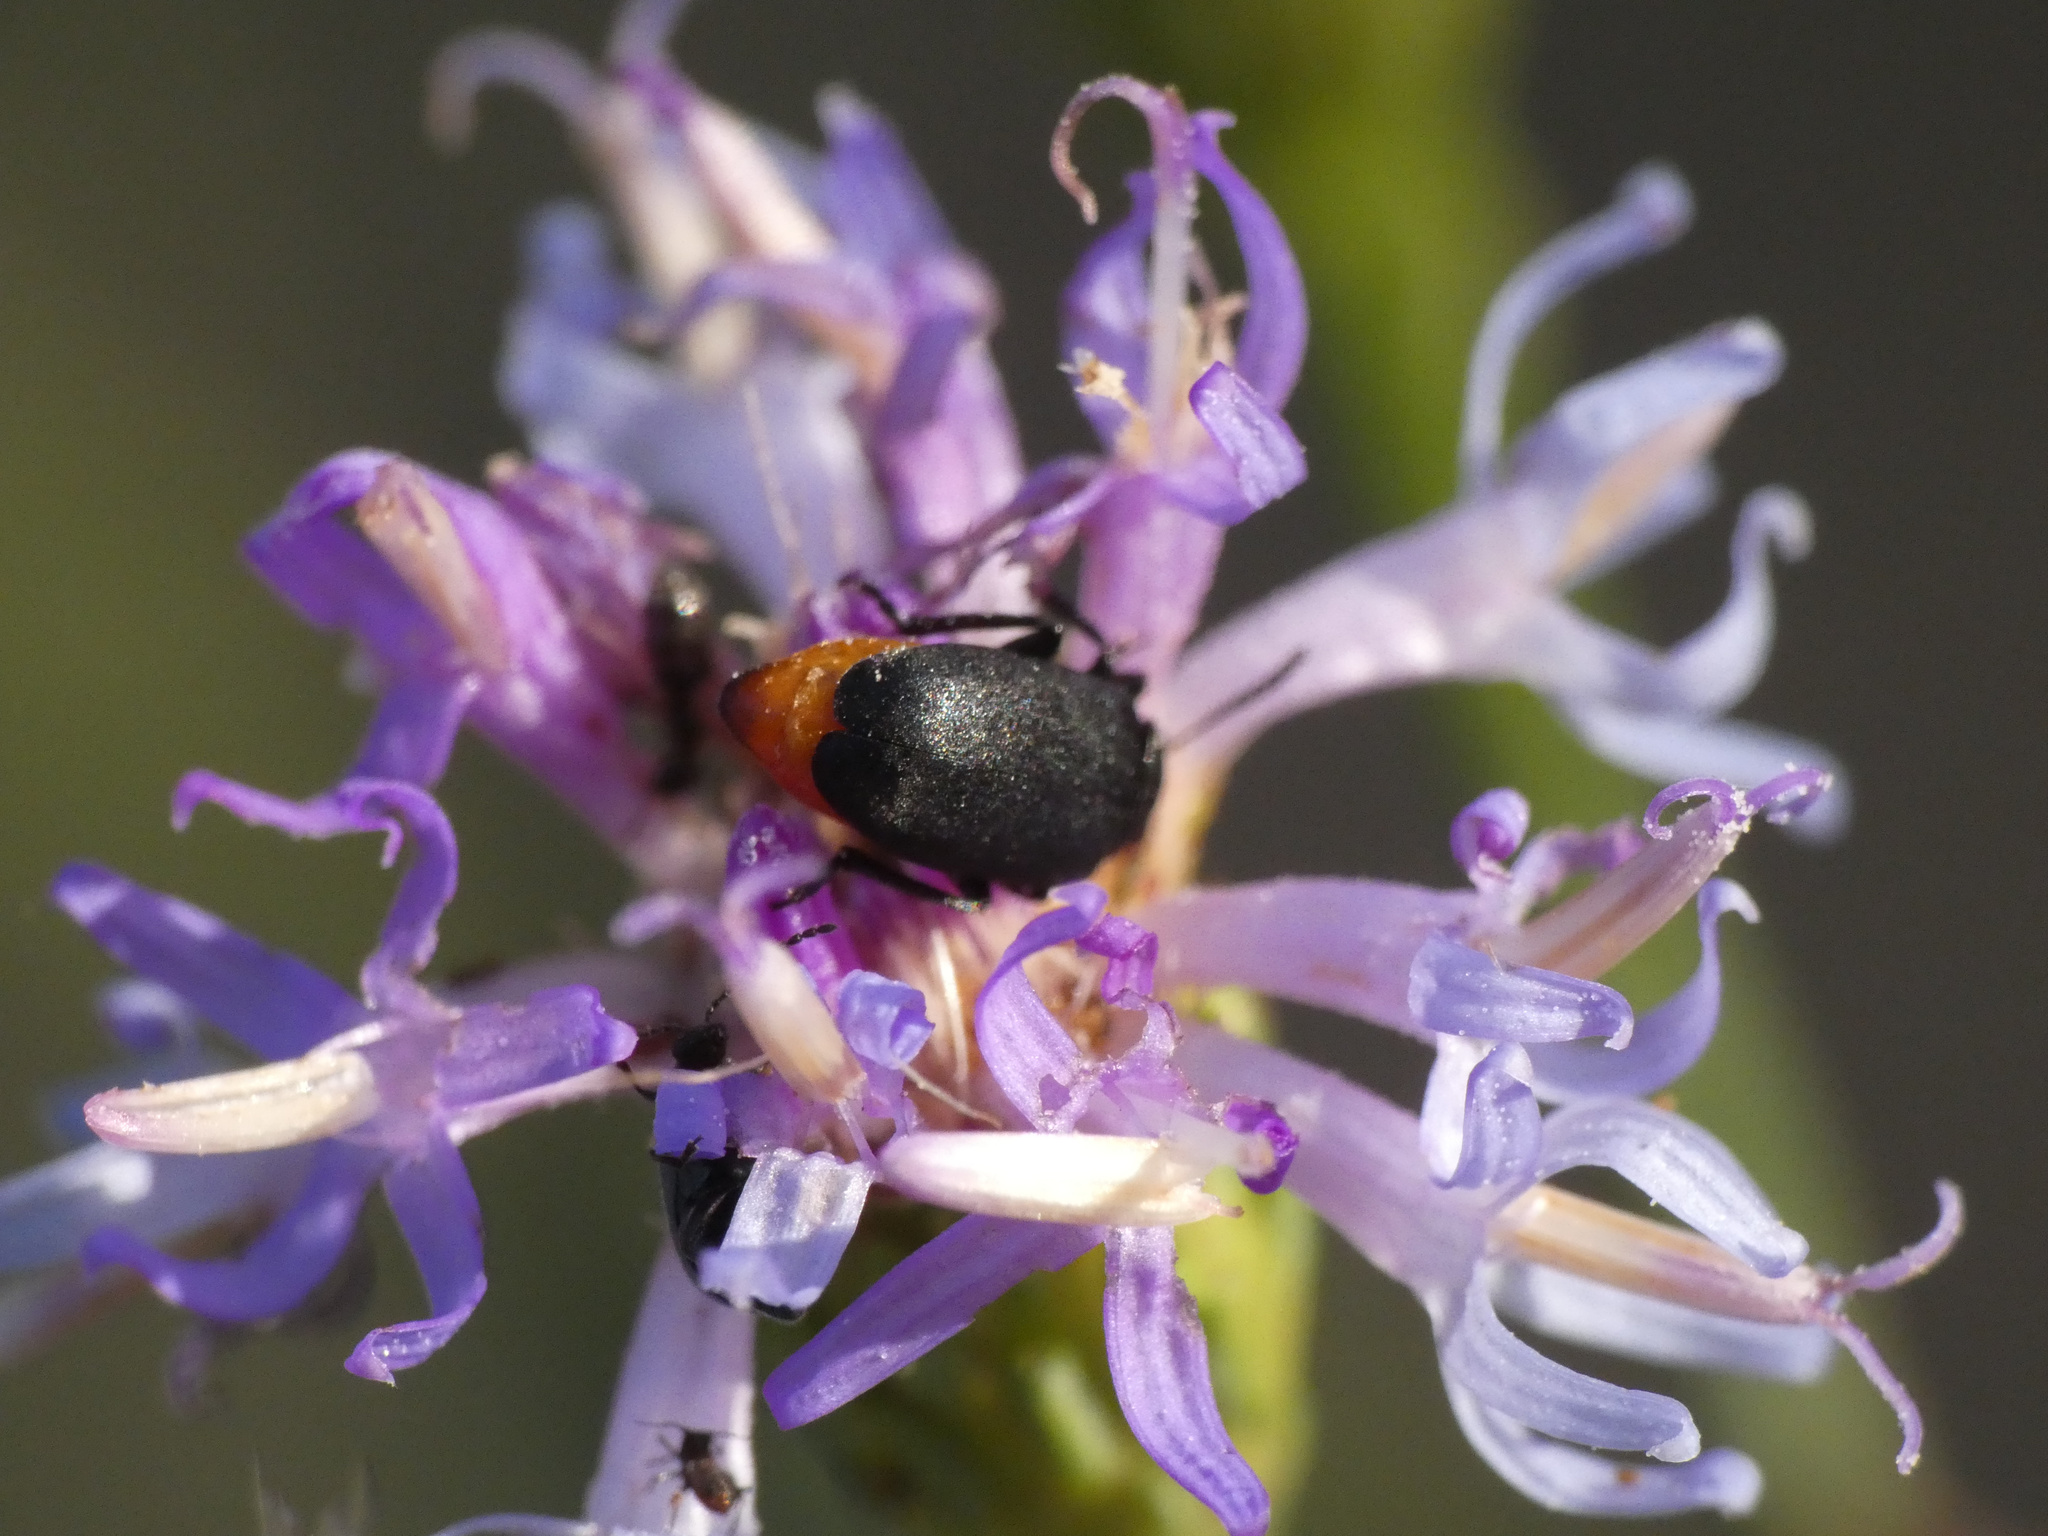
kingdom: Animalia
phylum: Arthropoda
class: Insecta
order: Coleoptera
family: Chrysomelidae
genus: Gastrida
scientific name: Gastrida
